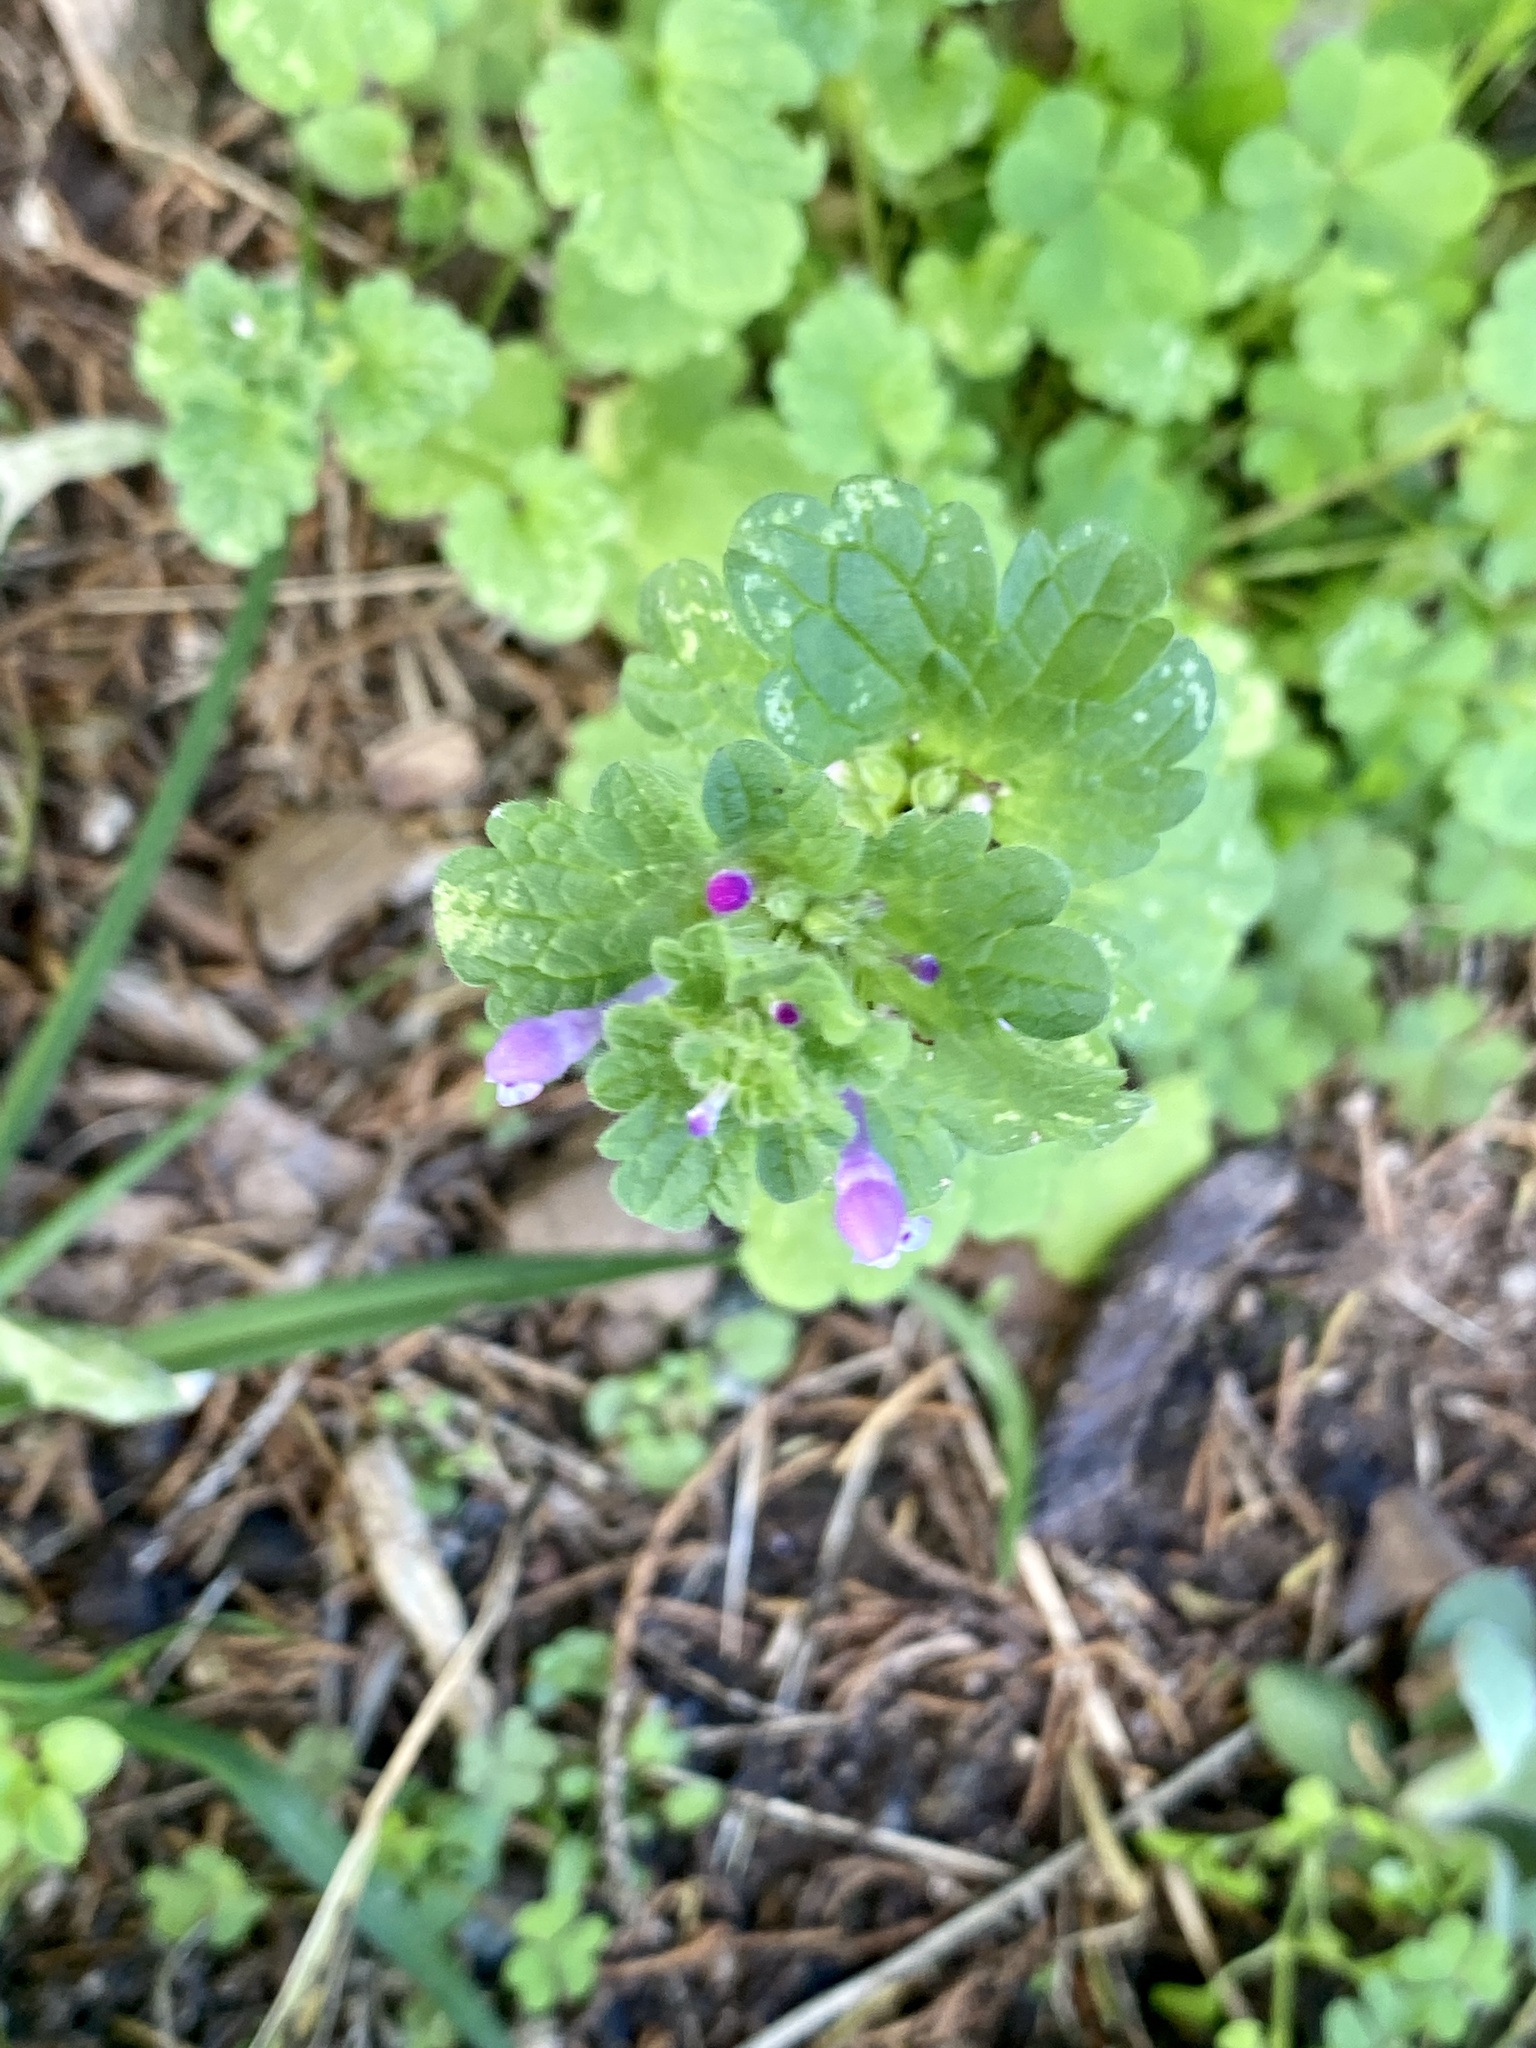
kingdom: Plantae
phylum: Tracheophyta
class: Magnoliopsida
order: Lamiales
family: Lamiaceae
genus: Lamium
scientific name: Lamium amplexicaule
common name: Henbit dead-nettle
